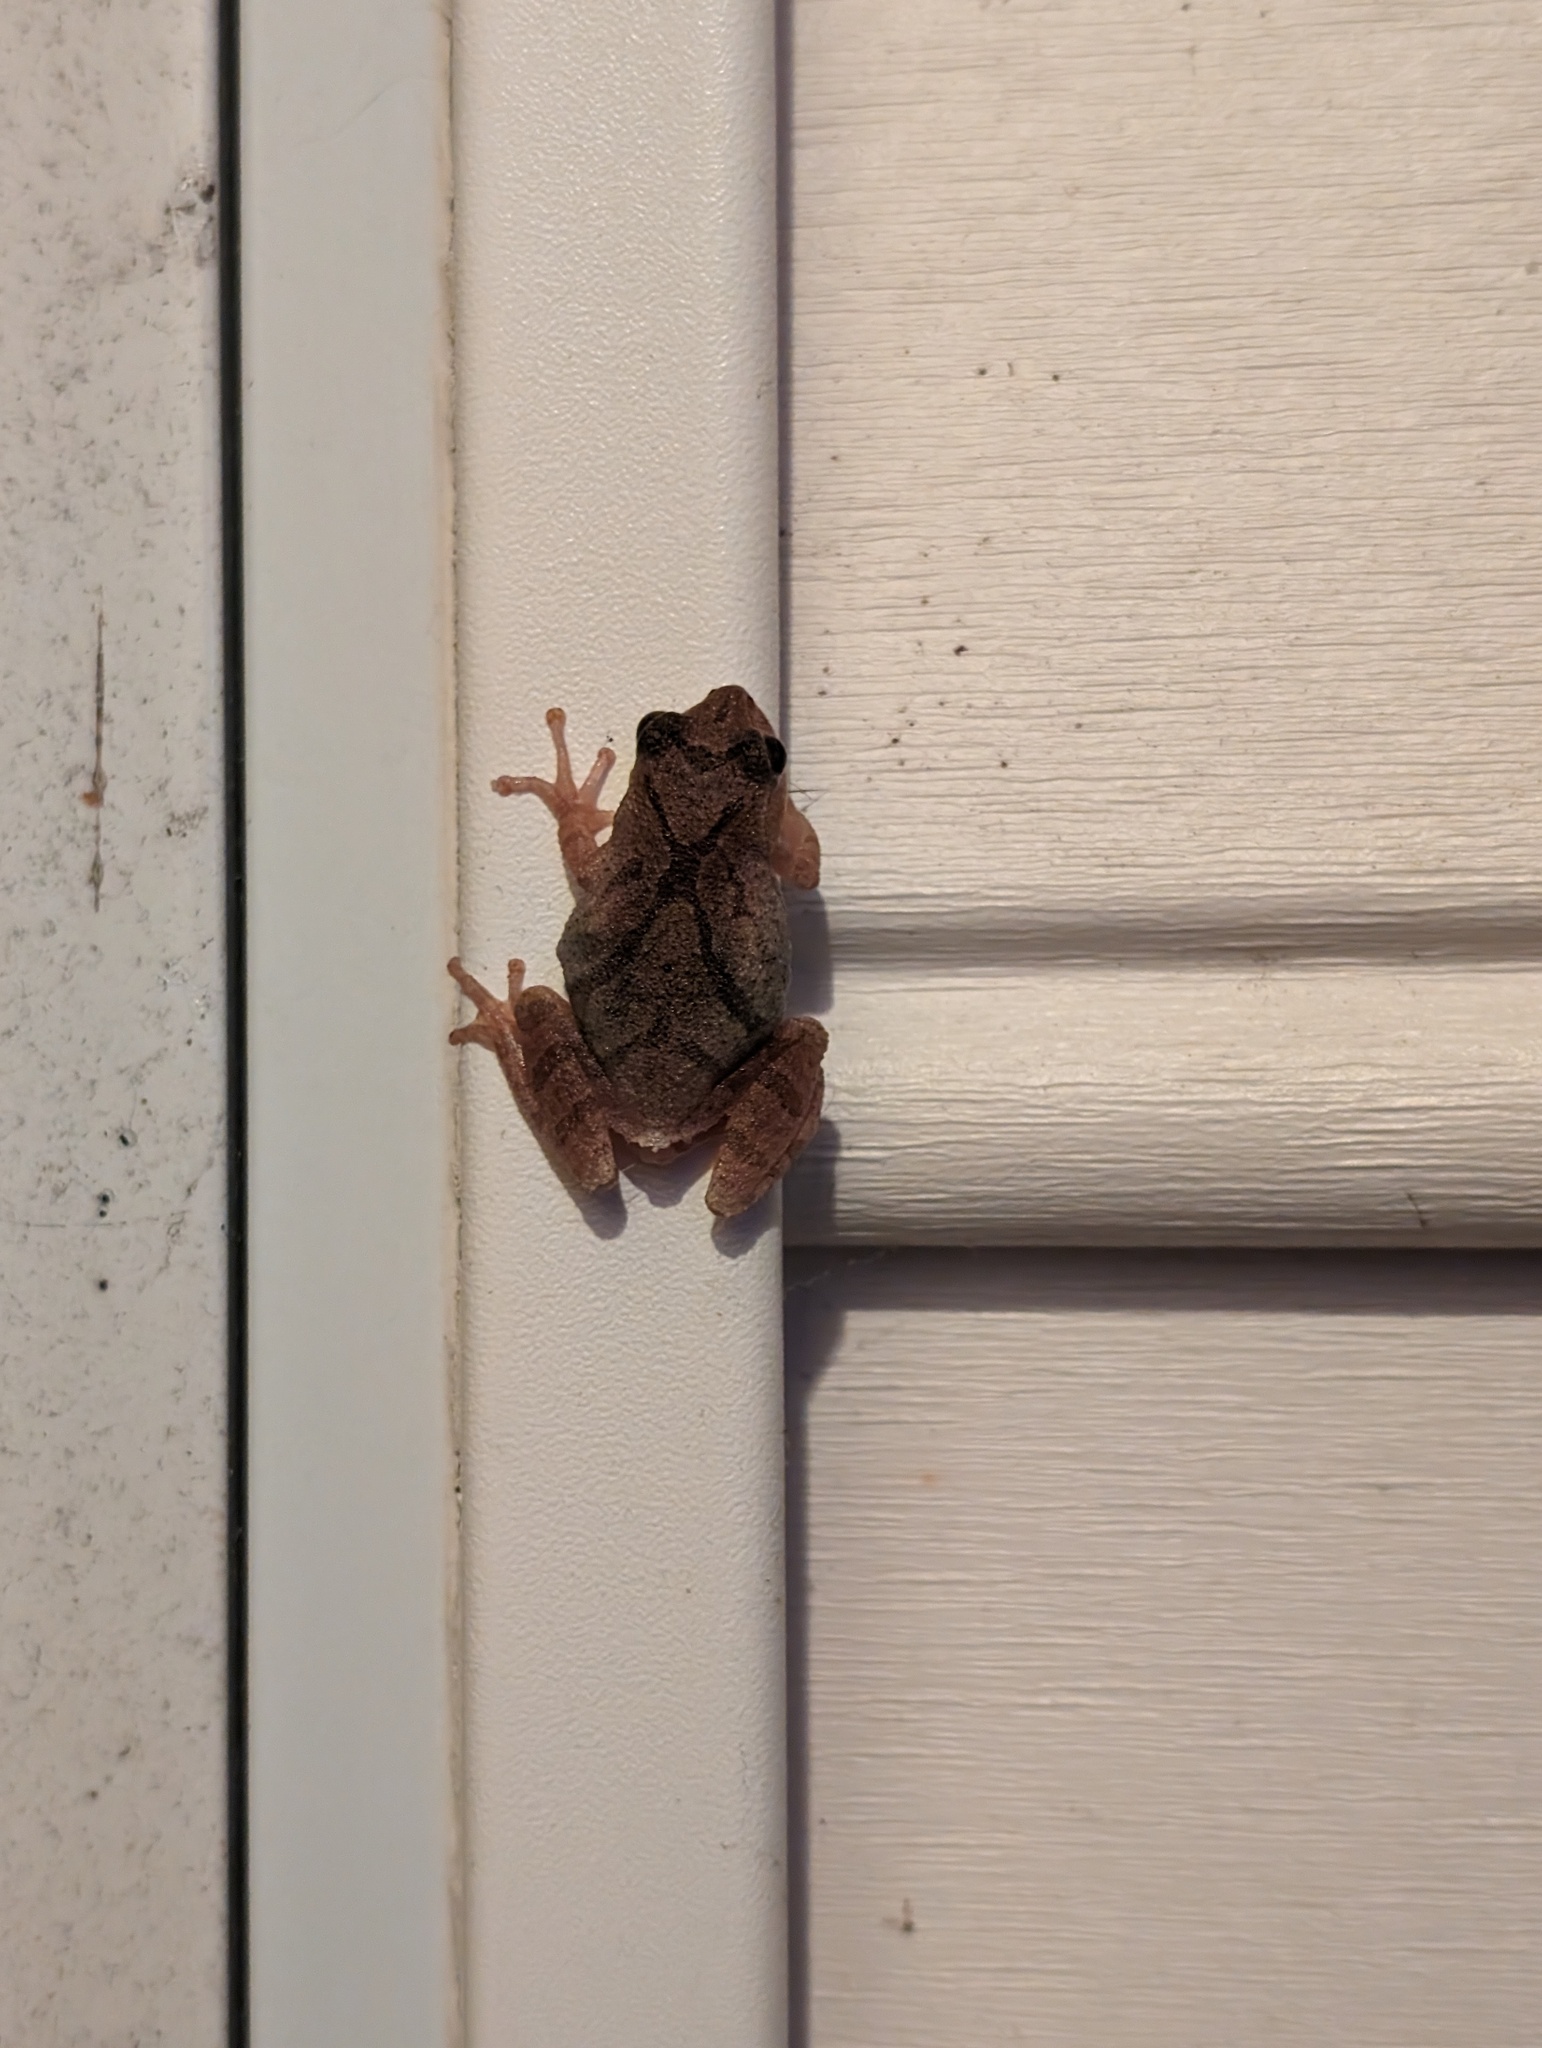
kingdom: Animalia
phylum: Chordata
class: Amphibia
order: Anura
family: Hylidae
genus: Pseudacris
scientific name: Pseudacris crucifer
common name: Spring peeper
